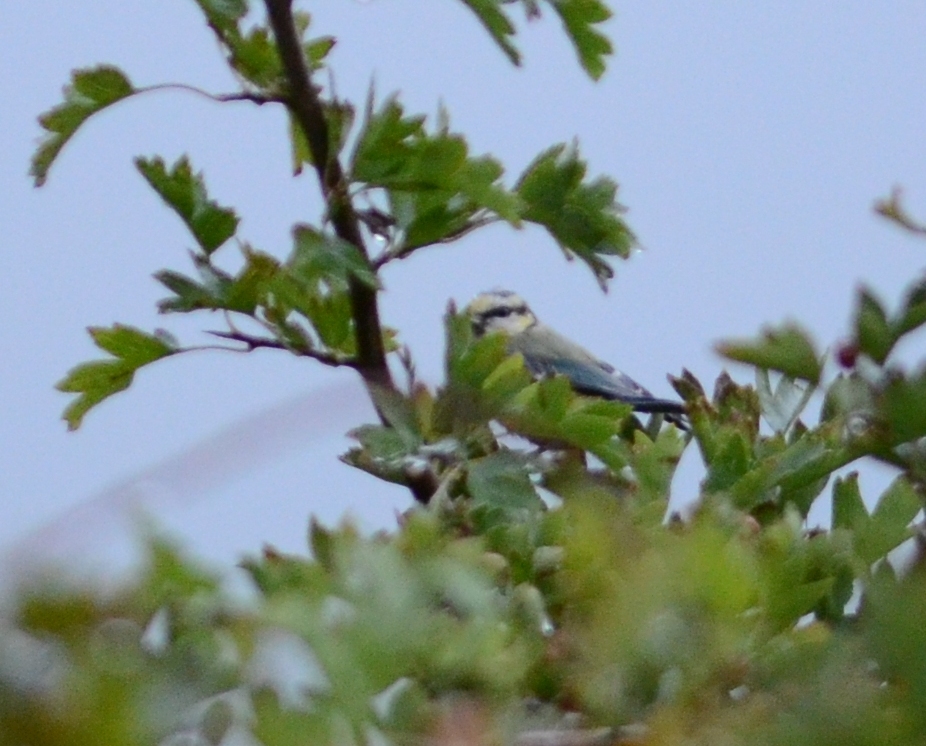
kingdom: Animalia
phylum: Chordata
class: Aves
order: Passeriformes
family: Paridae
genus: Cyanistes
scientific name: Cyanistes caeruleus
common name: Eurasian blue tit
